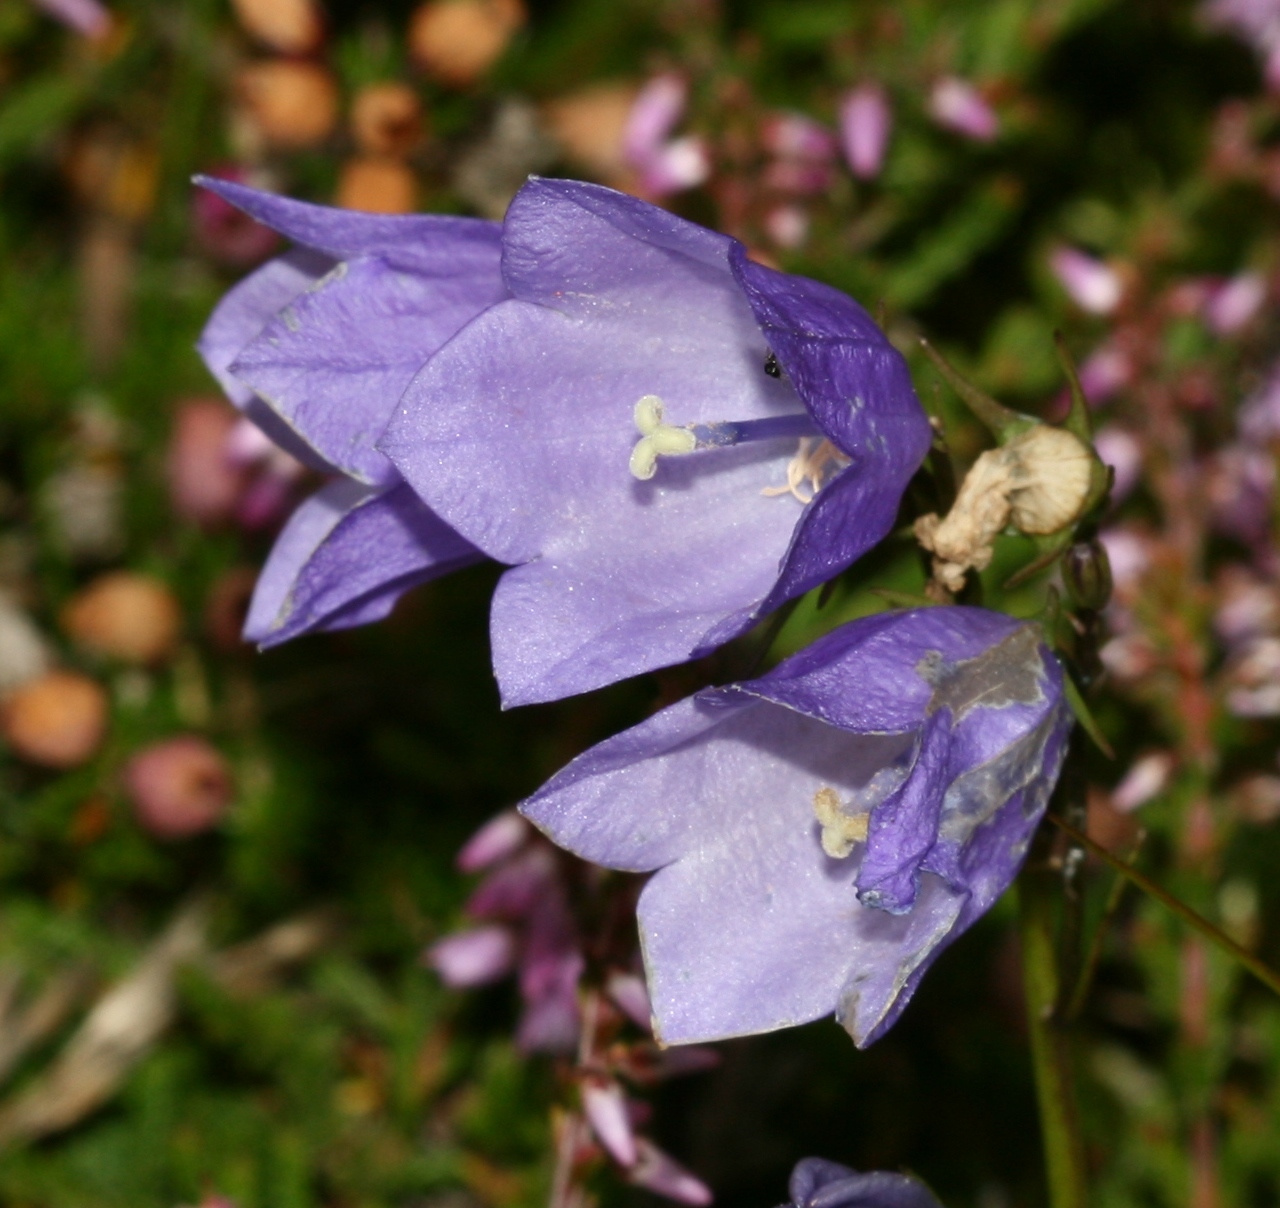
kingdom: Plantae
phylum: Tracheophyta
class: Magnoliopsida
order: Asterales
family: Campanulaceae
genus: Campanula
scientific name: Campanula rotundifolia
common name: Harebell
